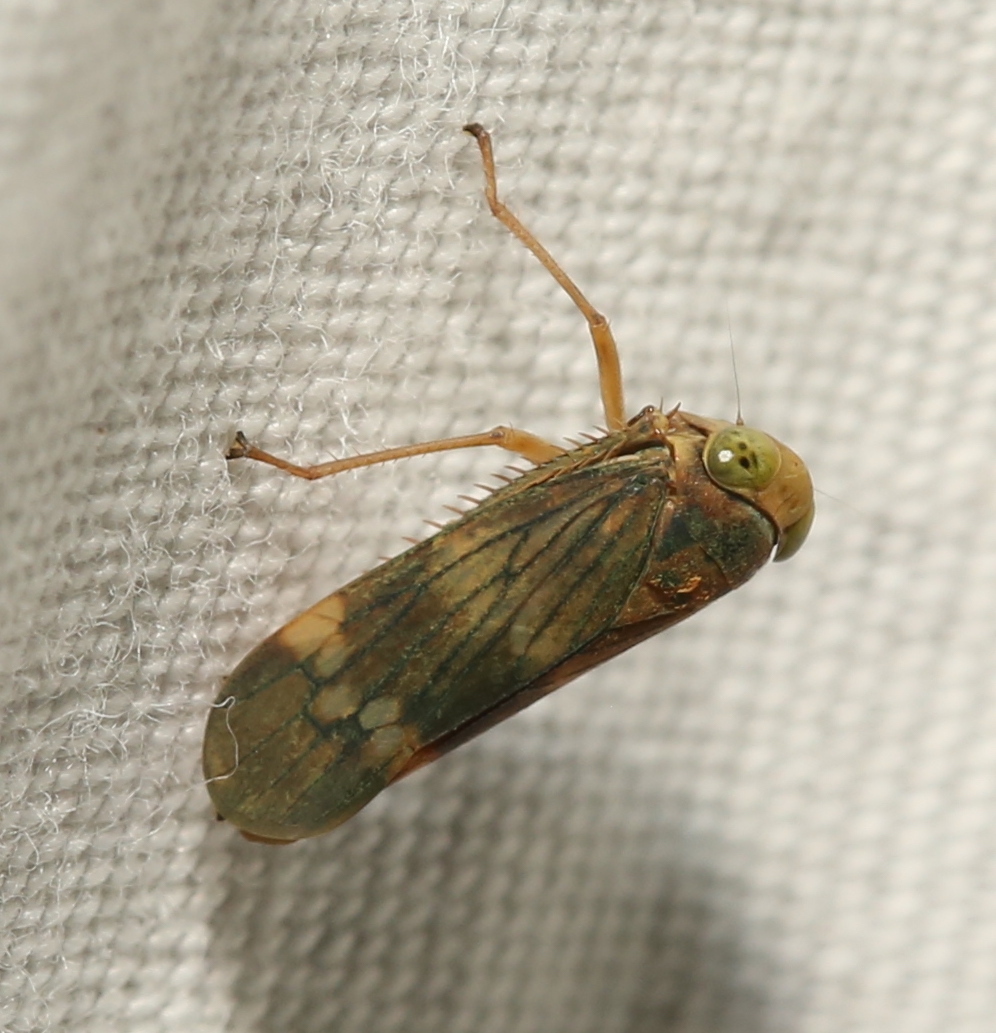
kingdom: Animalia
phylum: Arthropoda
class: Insecta
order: Hemiptera
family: Cicadellidae
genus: Jikradia
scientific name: Jikradia olitoria
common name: Coppery leafhopper
